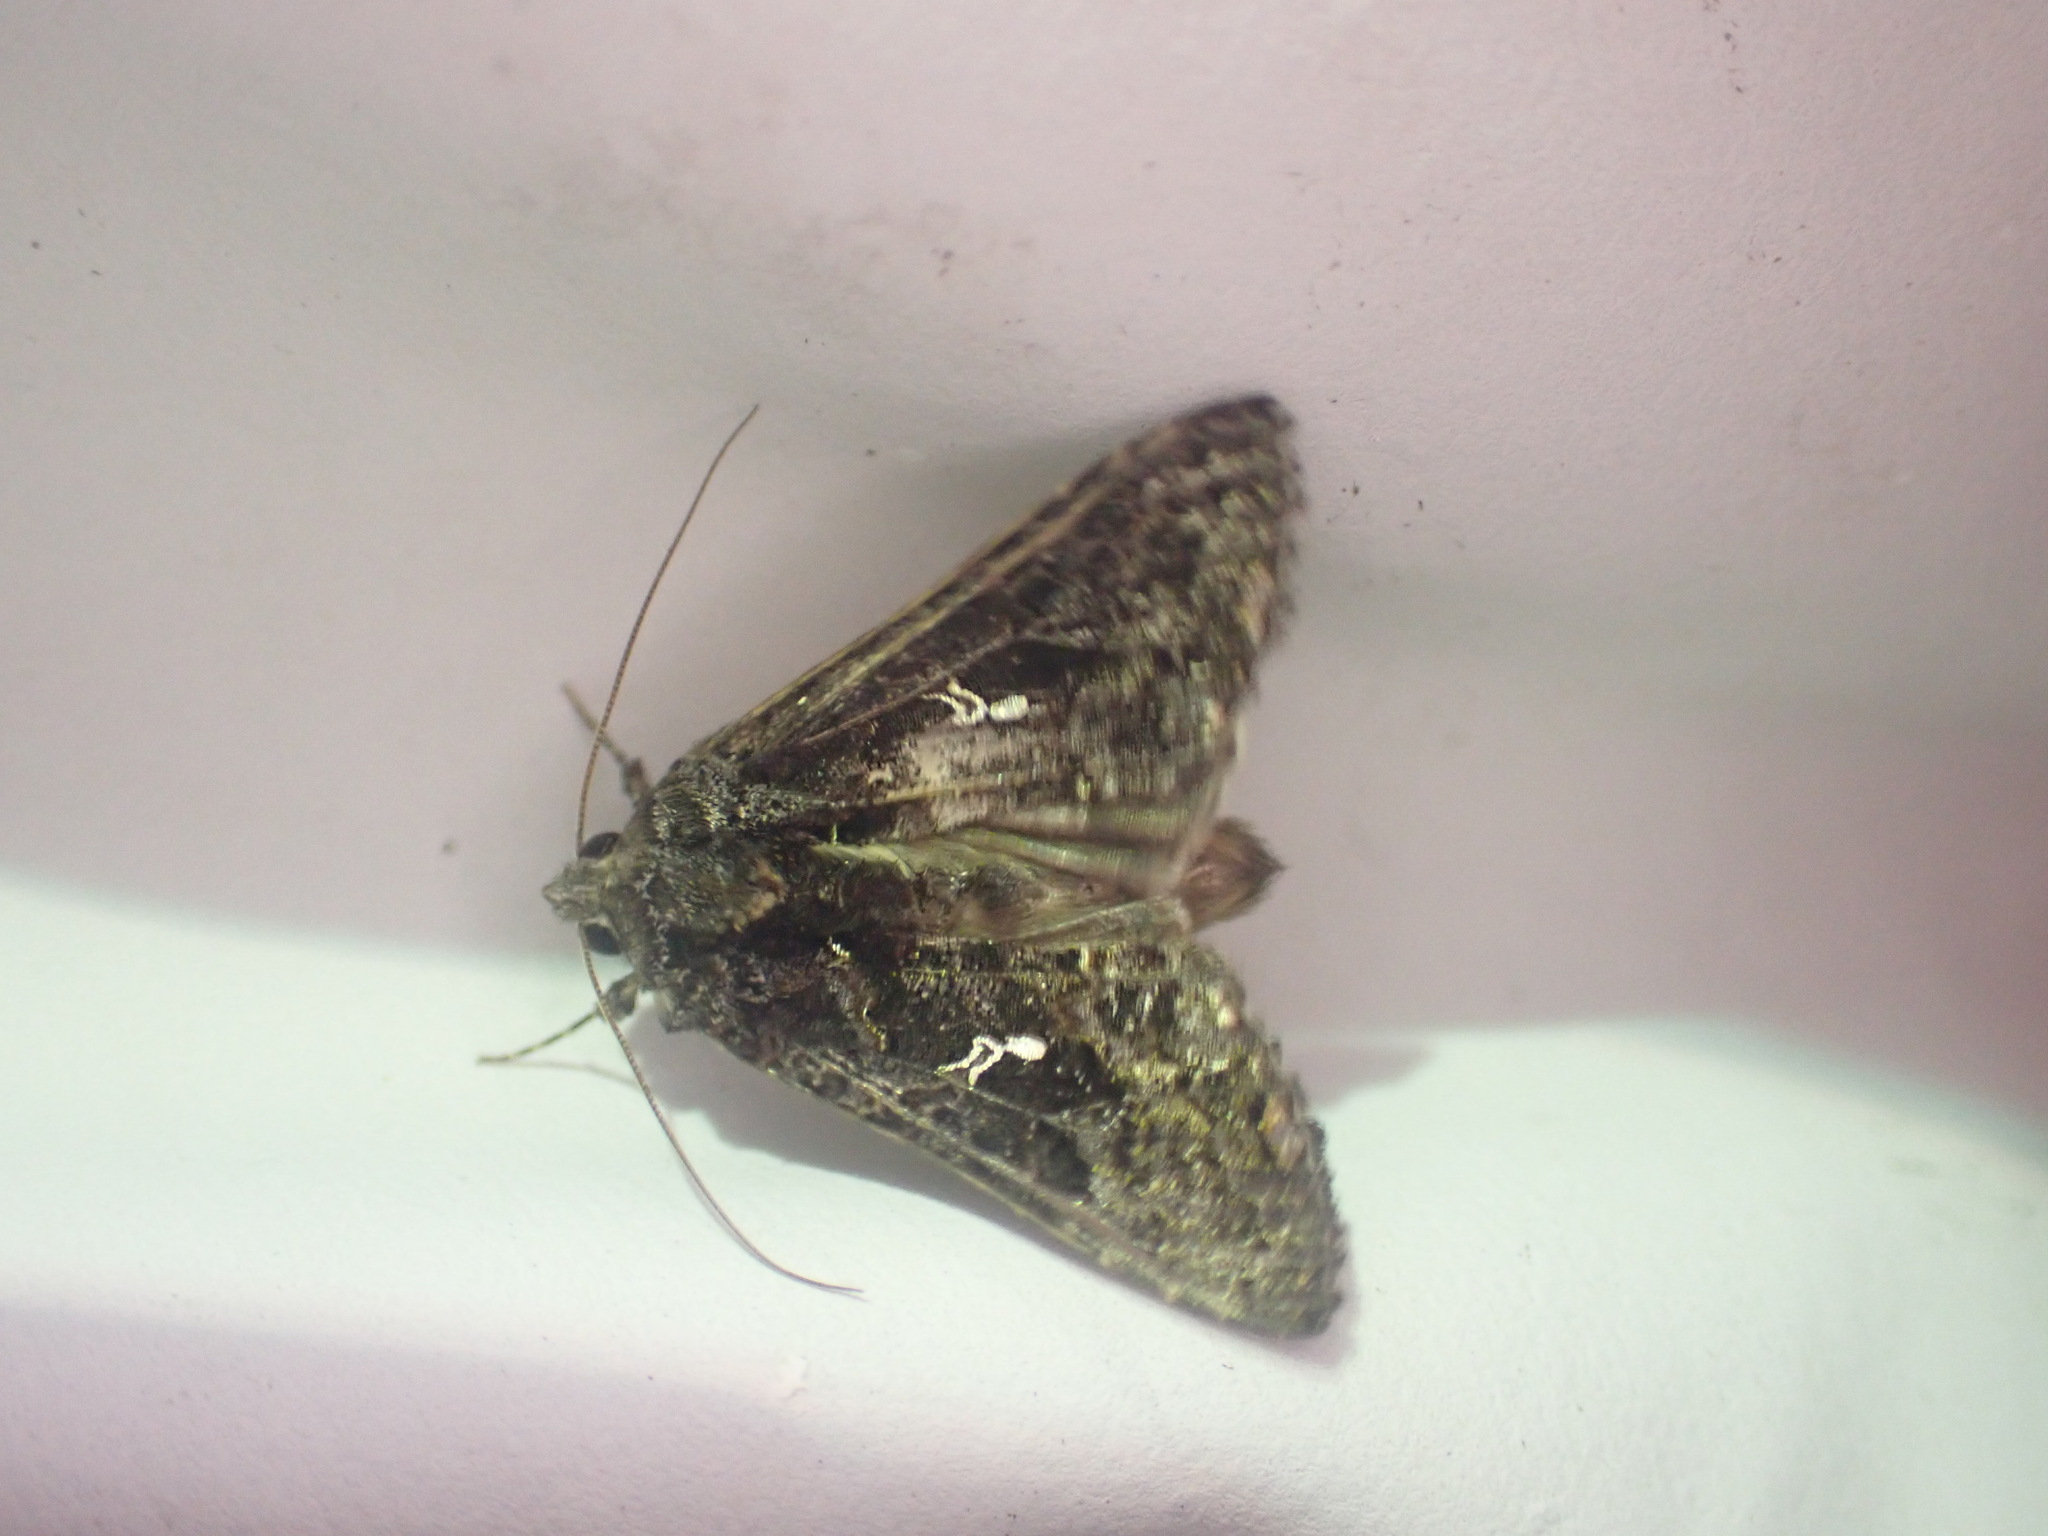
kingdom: Animalia
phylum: Arthropoda
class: Insecta
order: Lepidoptera
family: Noctuidae
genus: Ctenoplusia
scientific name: Ctenoplusia limbirena
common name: Scar bank gem
